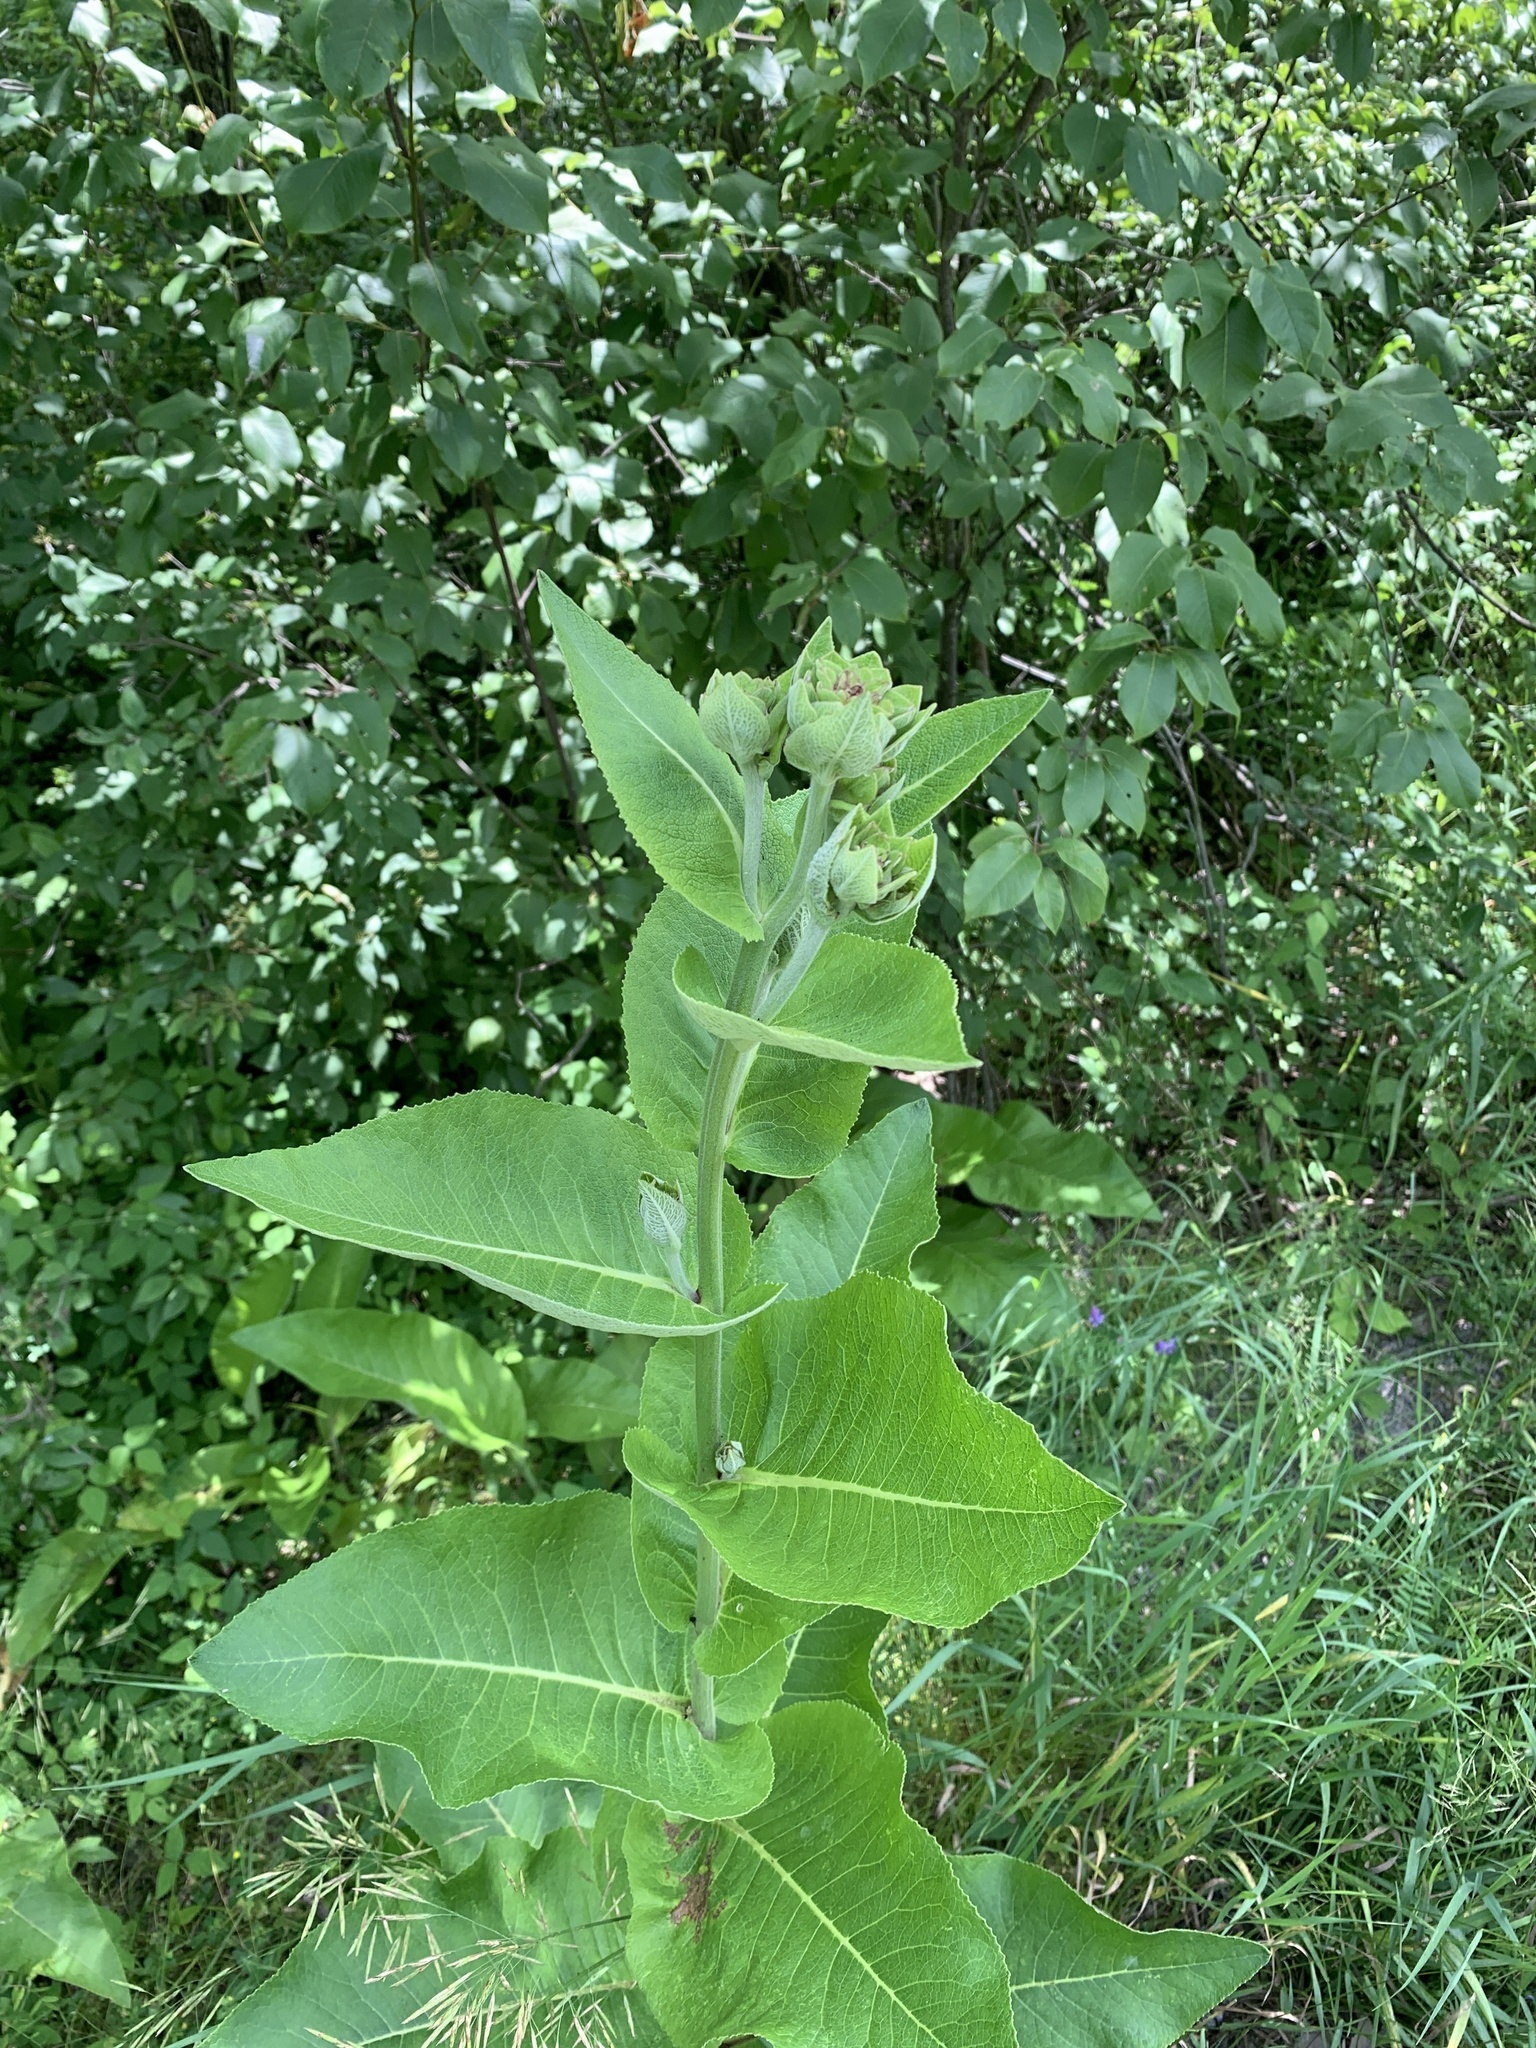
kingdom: Plantae
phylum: Tracheophyta
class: Magnoliopsida
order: Asterales
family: Asteraceae
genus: Inula
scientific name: Inula helenium
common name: Elecampane
